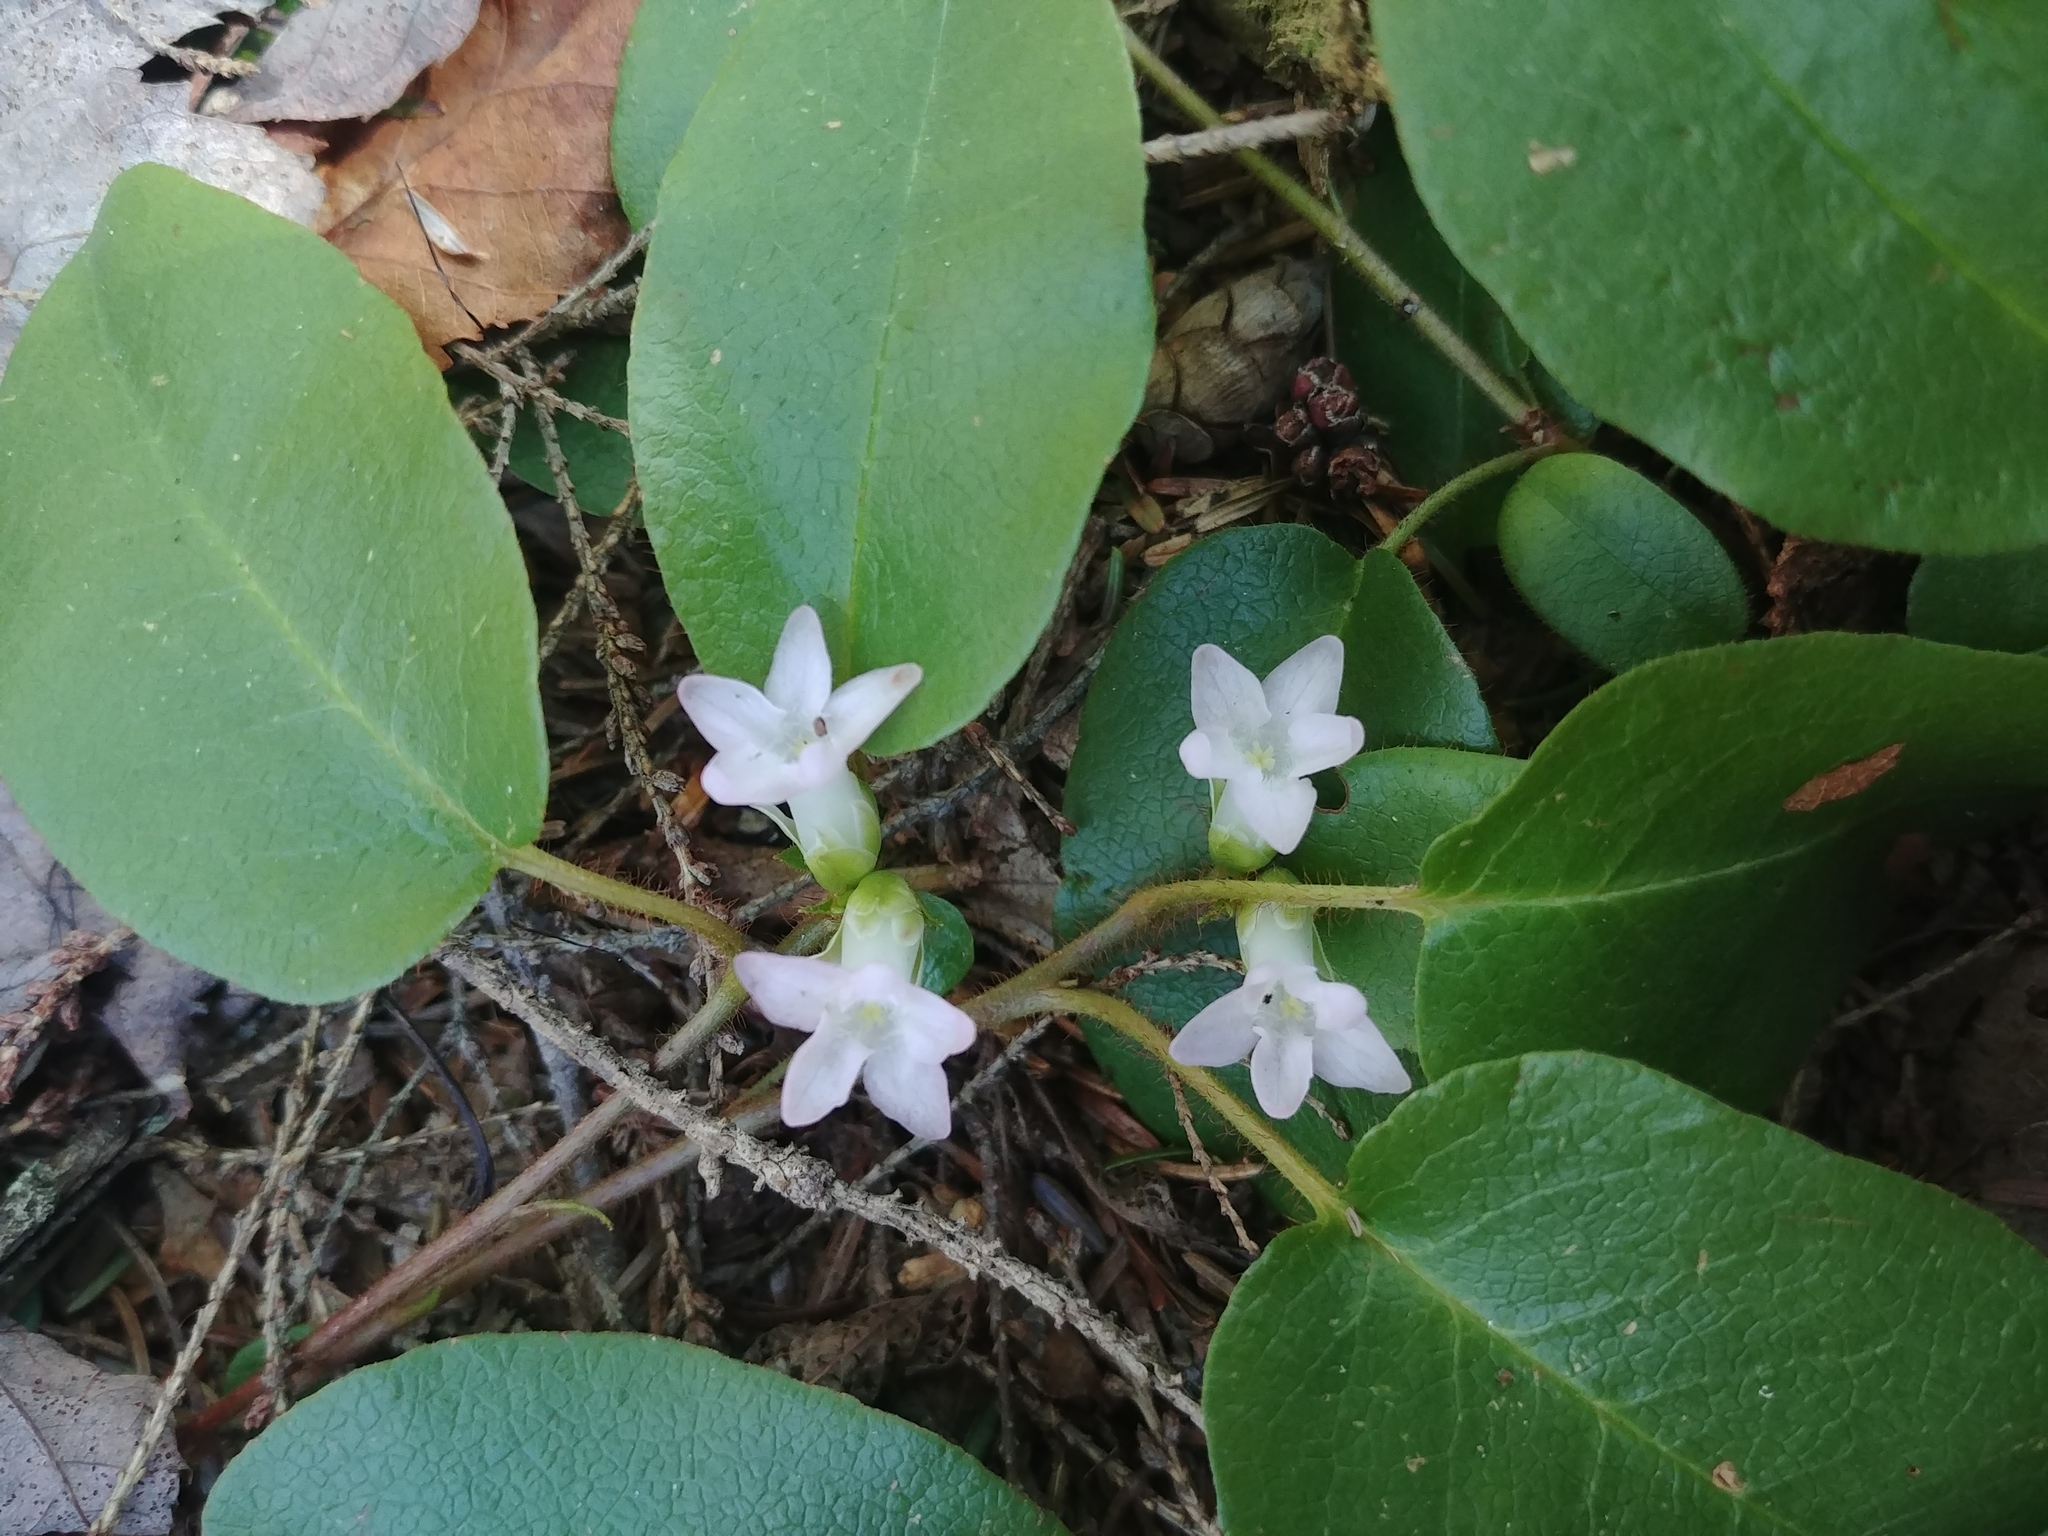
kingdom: Plantae
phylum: Tracheophyta
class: Magnoliopsida
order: Ericales
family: Ericaceae
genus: Epigaea
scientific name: Epigaea repens
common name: Gravelroot
